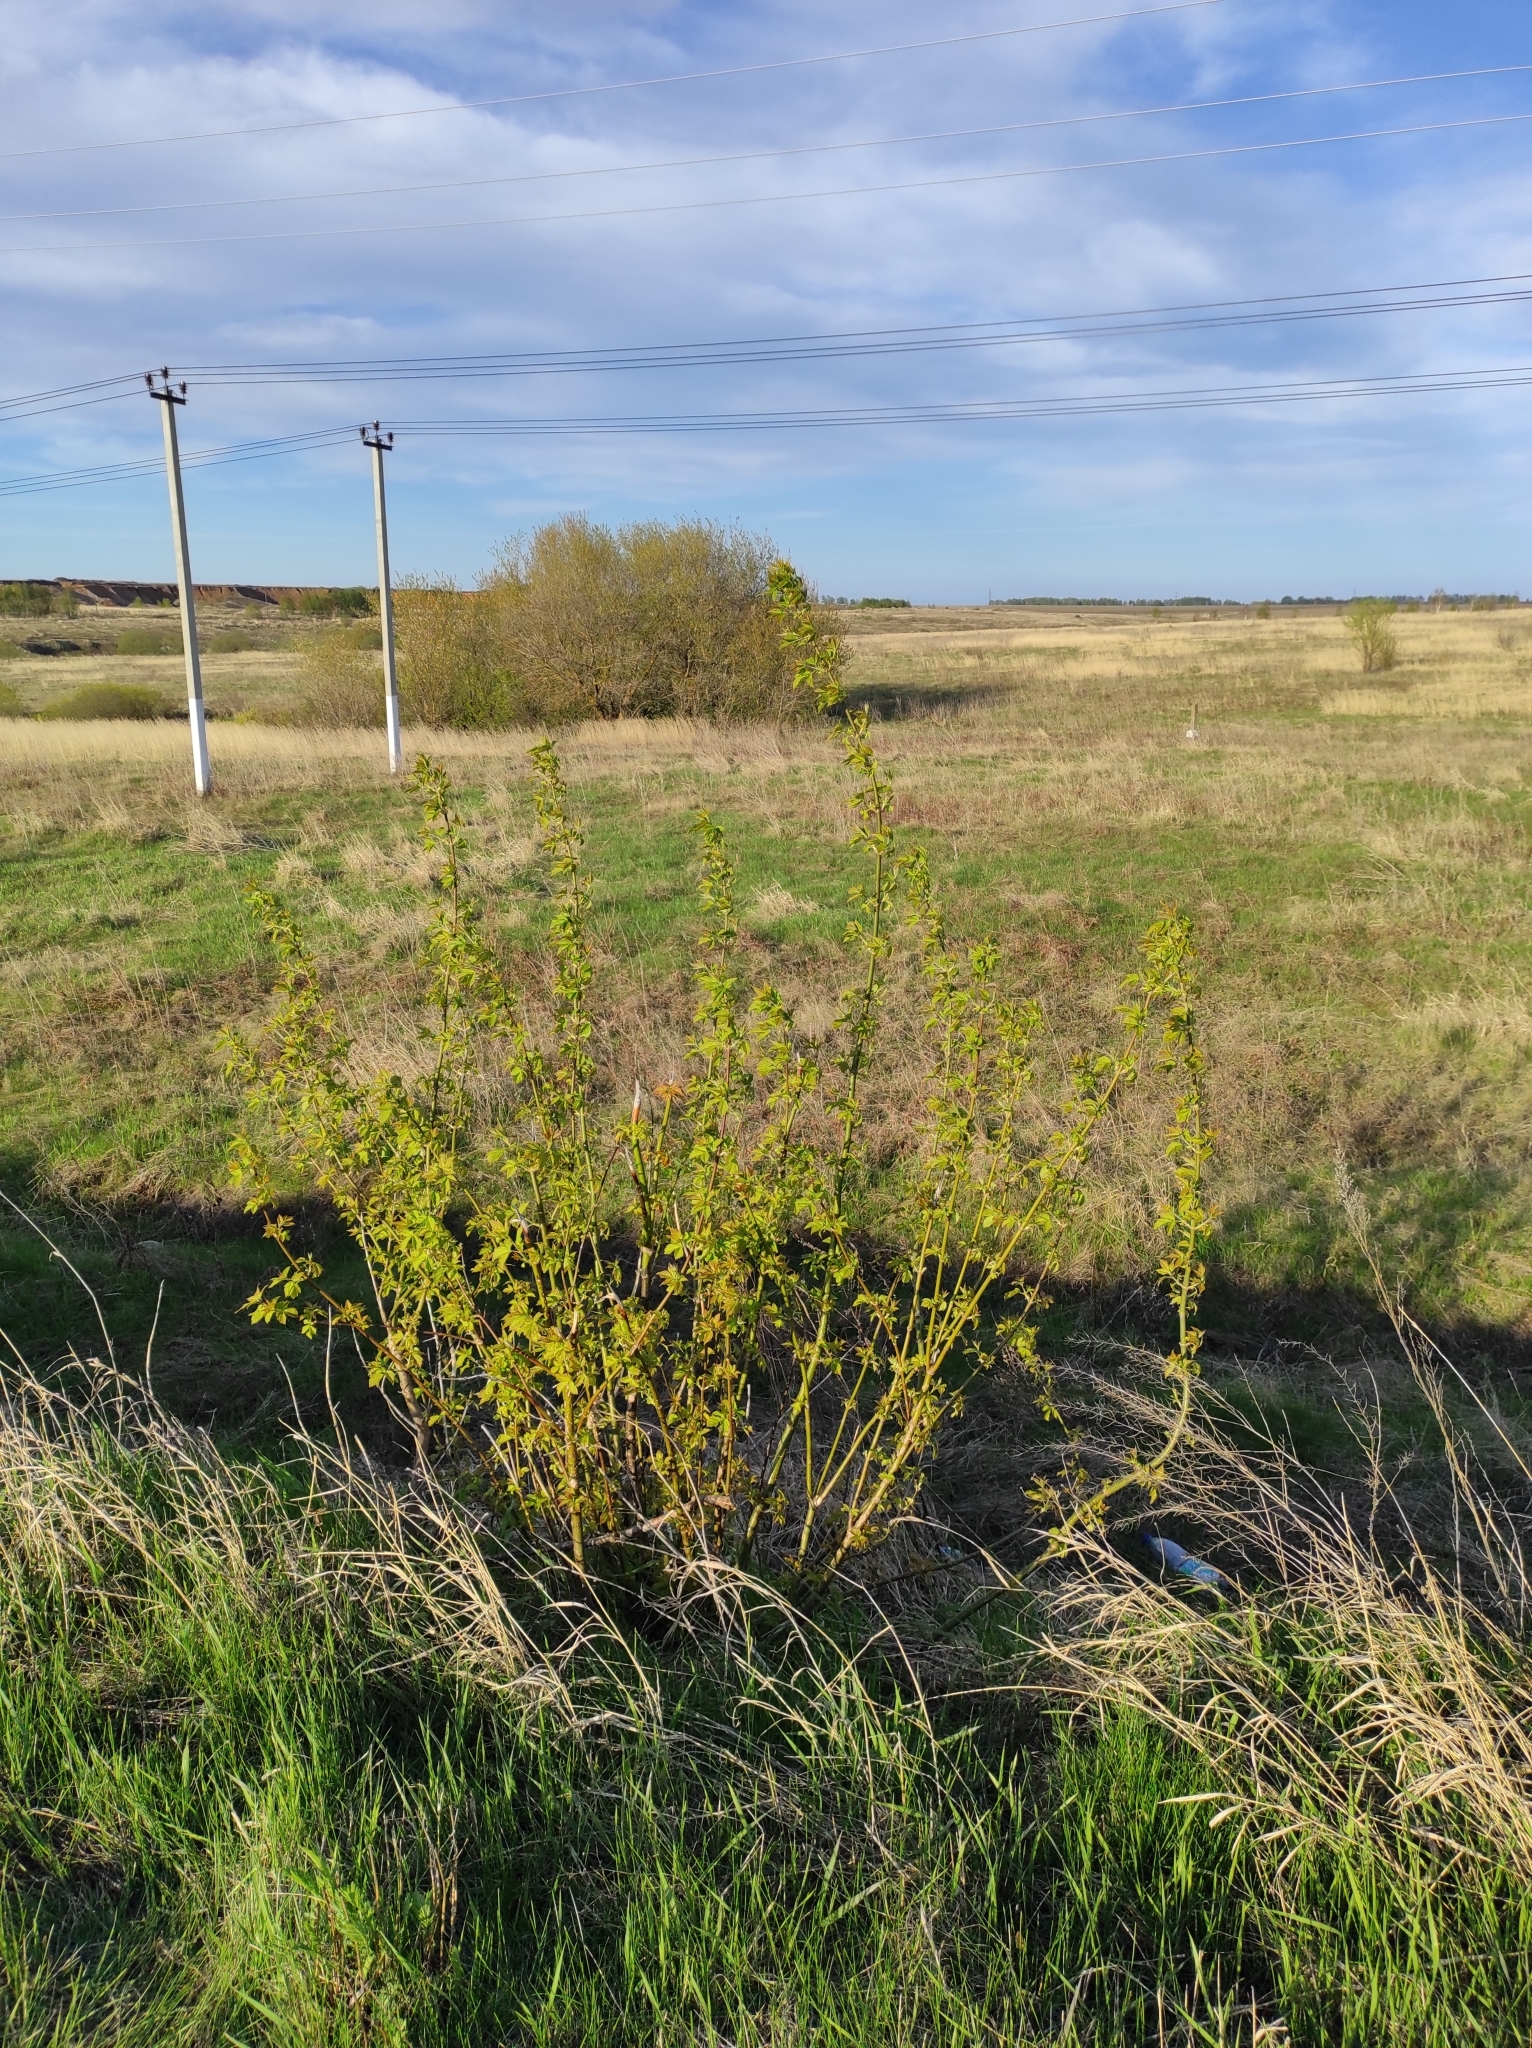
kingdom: Plantae
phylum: Tracheophyta
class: Magnoliopsida
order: Sapindales
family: Sapindaceae
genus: Acer
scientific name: Acer negundo
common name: Ashleaf maple
